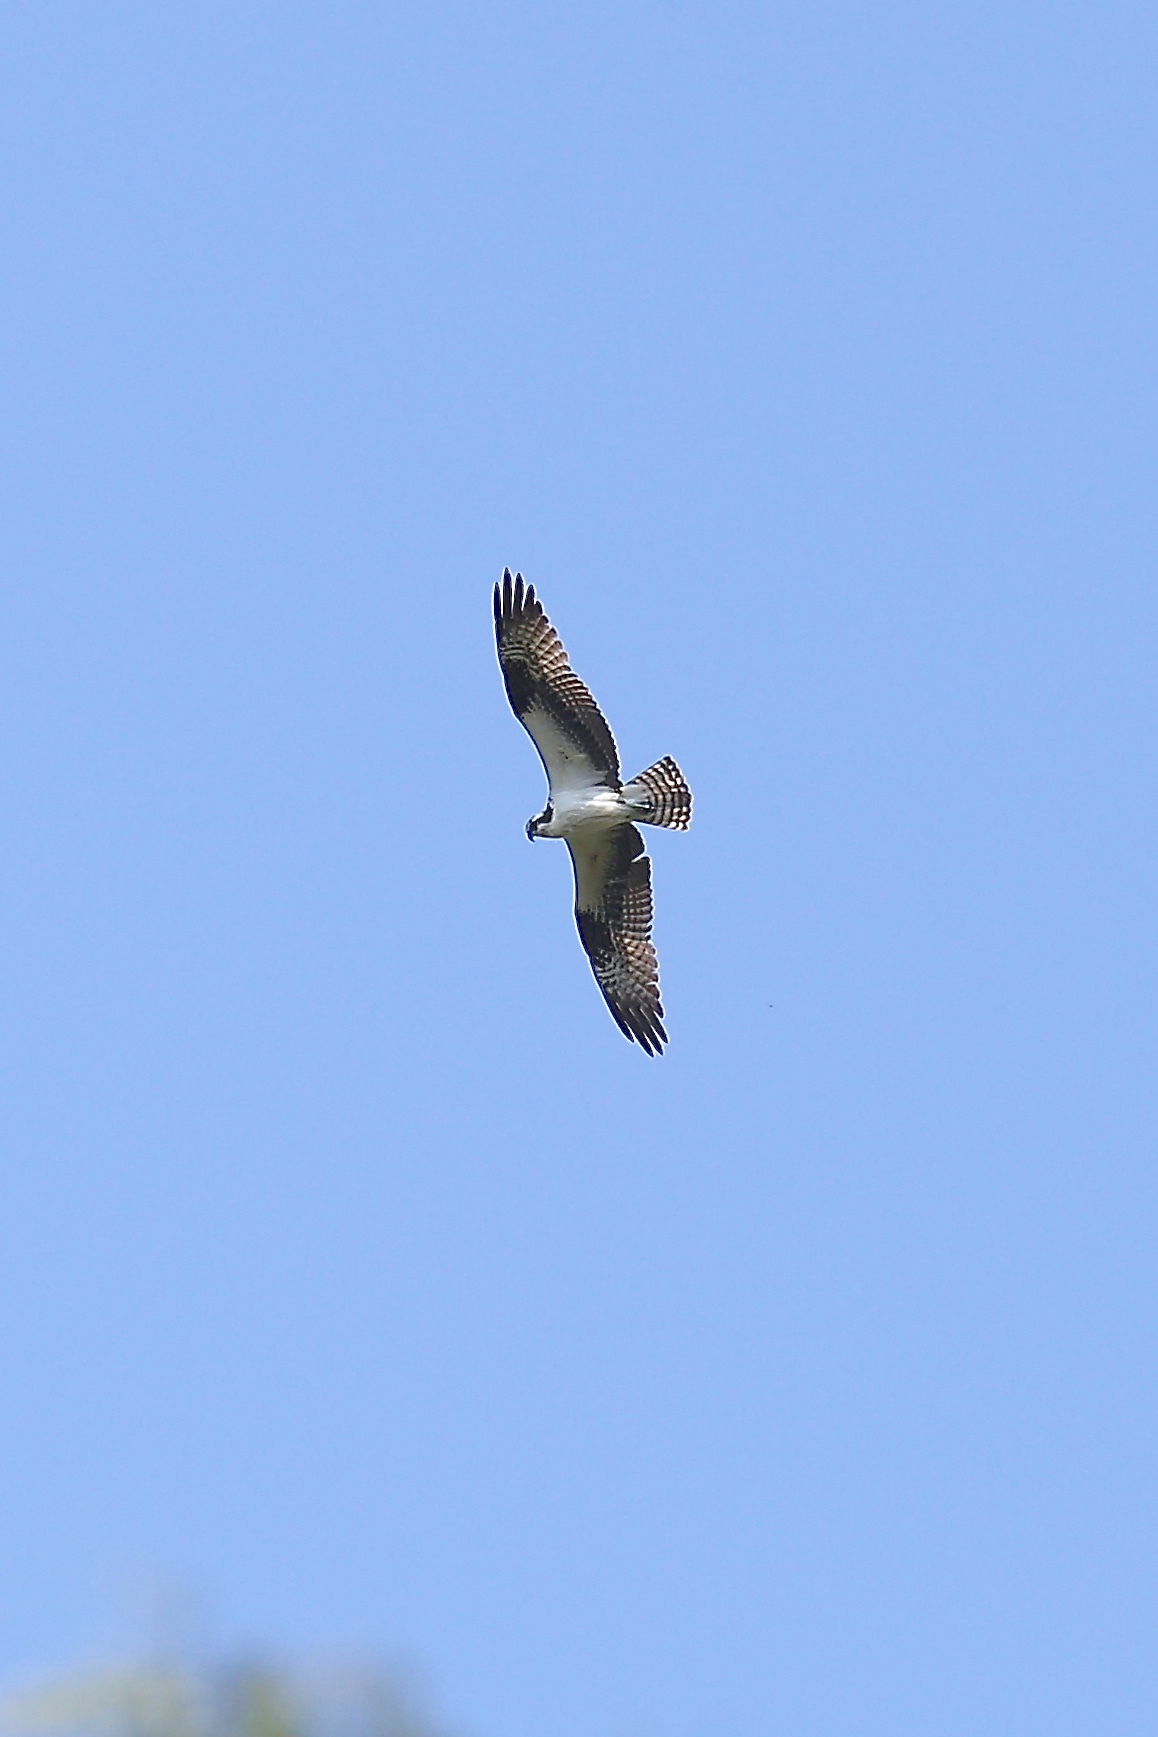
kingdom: Animalia
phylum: Chordata
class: Aves
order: Accipitriformes
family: Pandionidae
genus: Pandion
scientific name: Pandion haliaetus
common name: Osprey
